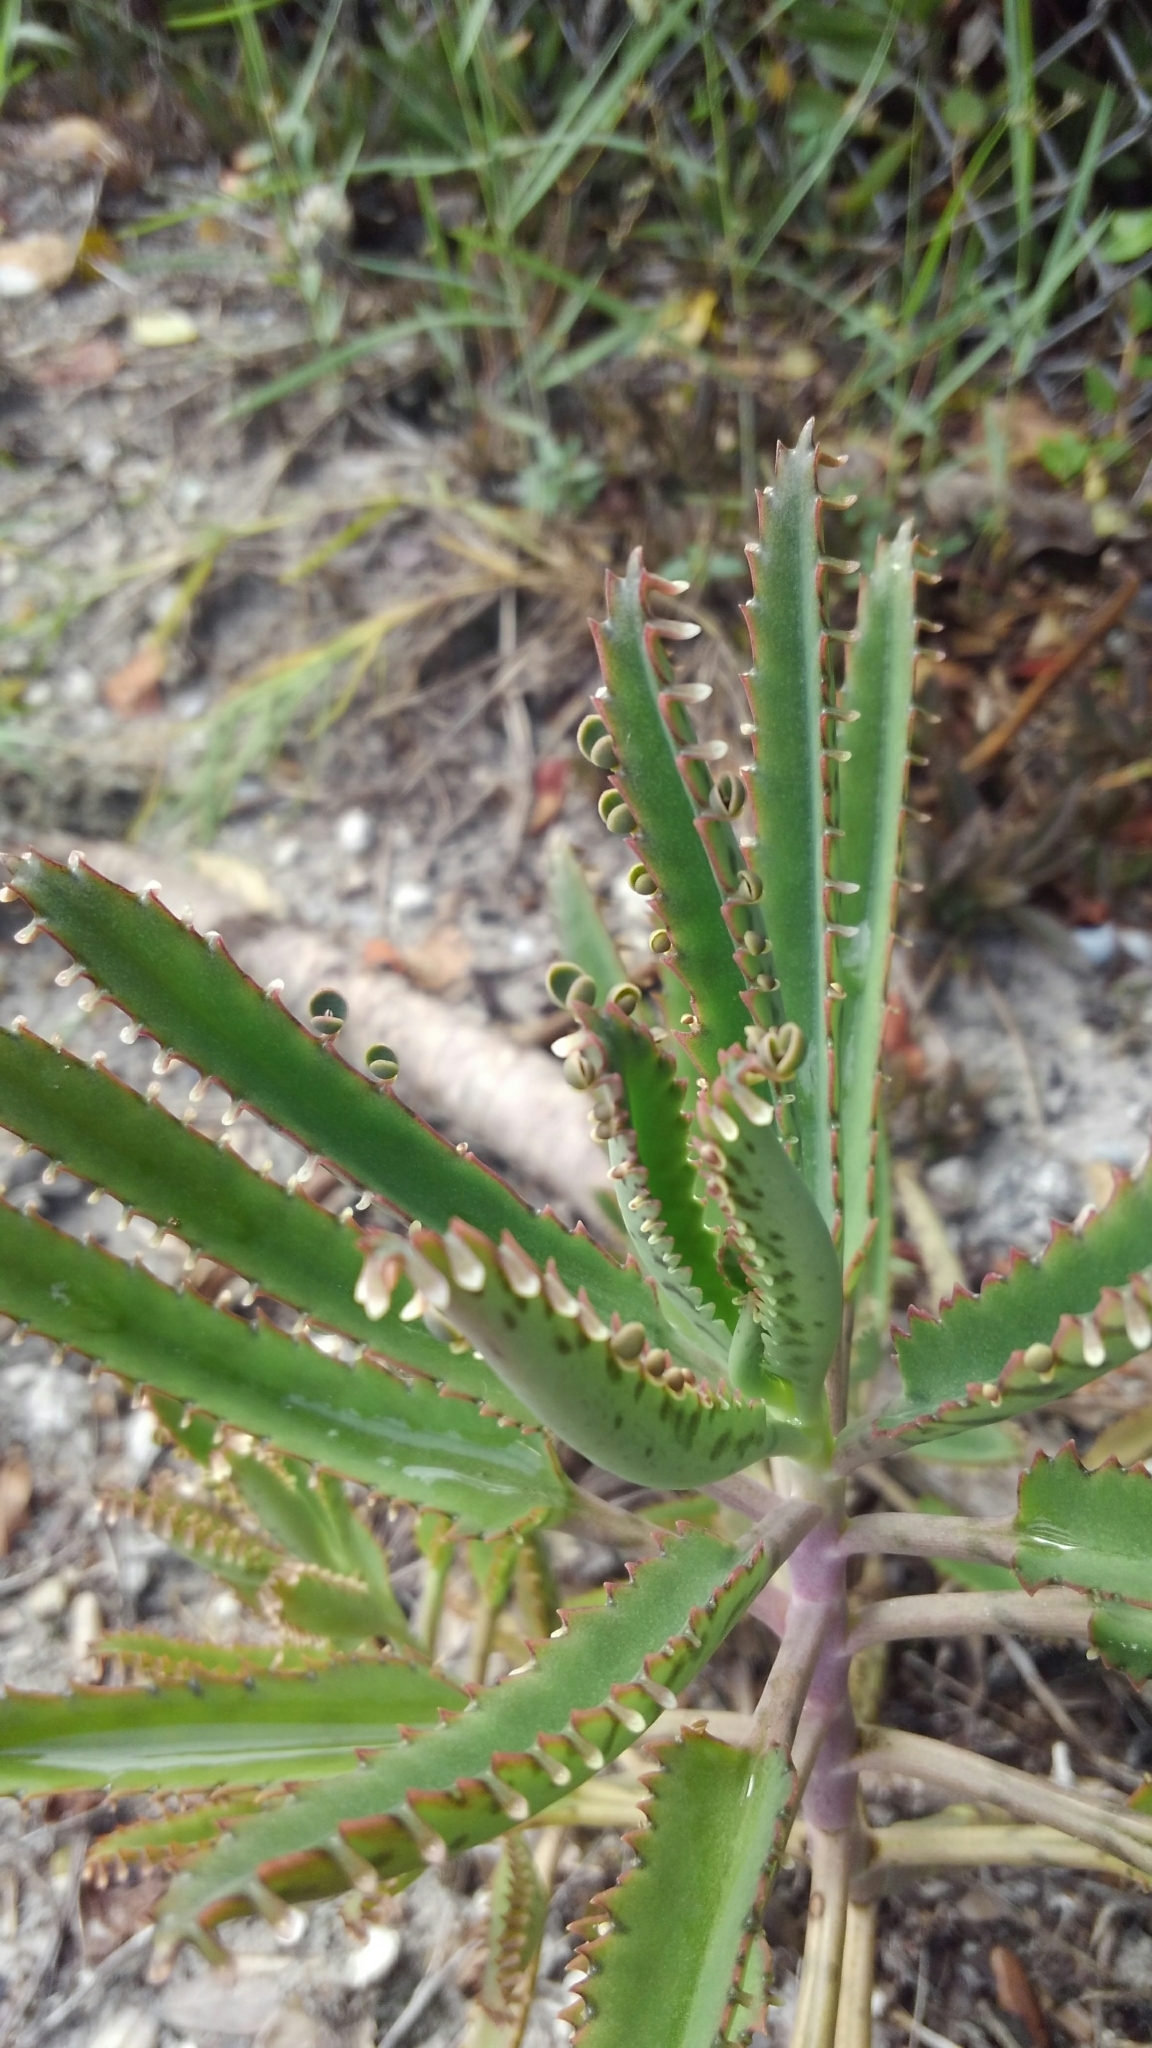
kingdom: Plantae
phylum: Tracheophyta
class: Magnoliopsida
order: Saxifragales
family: Crassulaceae
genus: Kalanchoe
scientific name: Kalanchoe houghtonii
